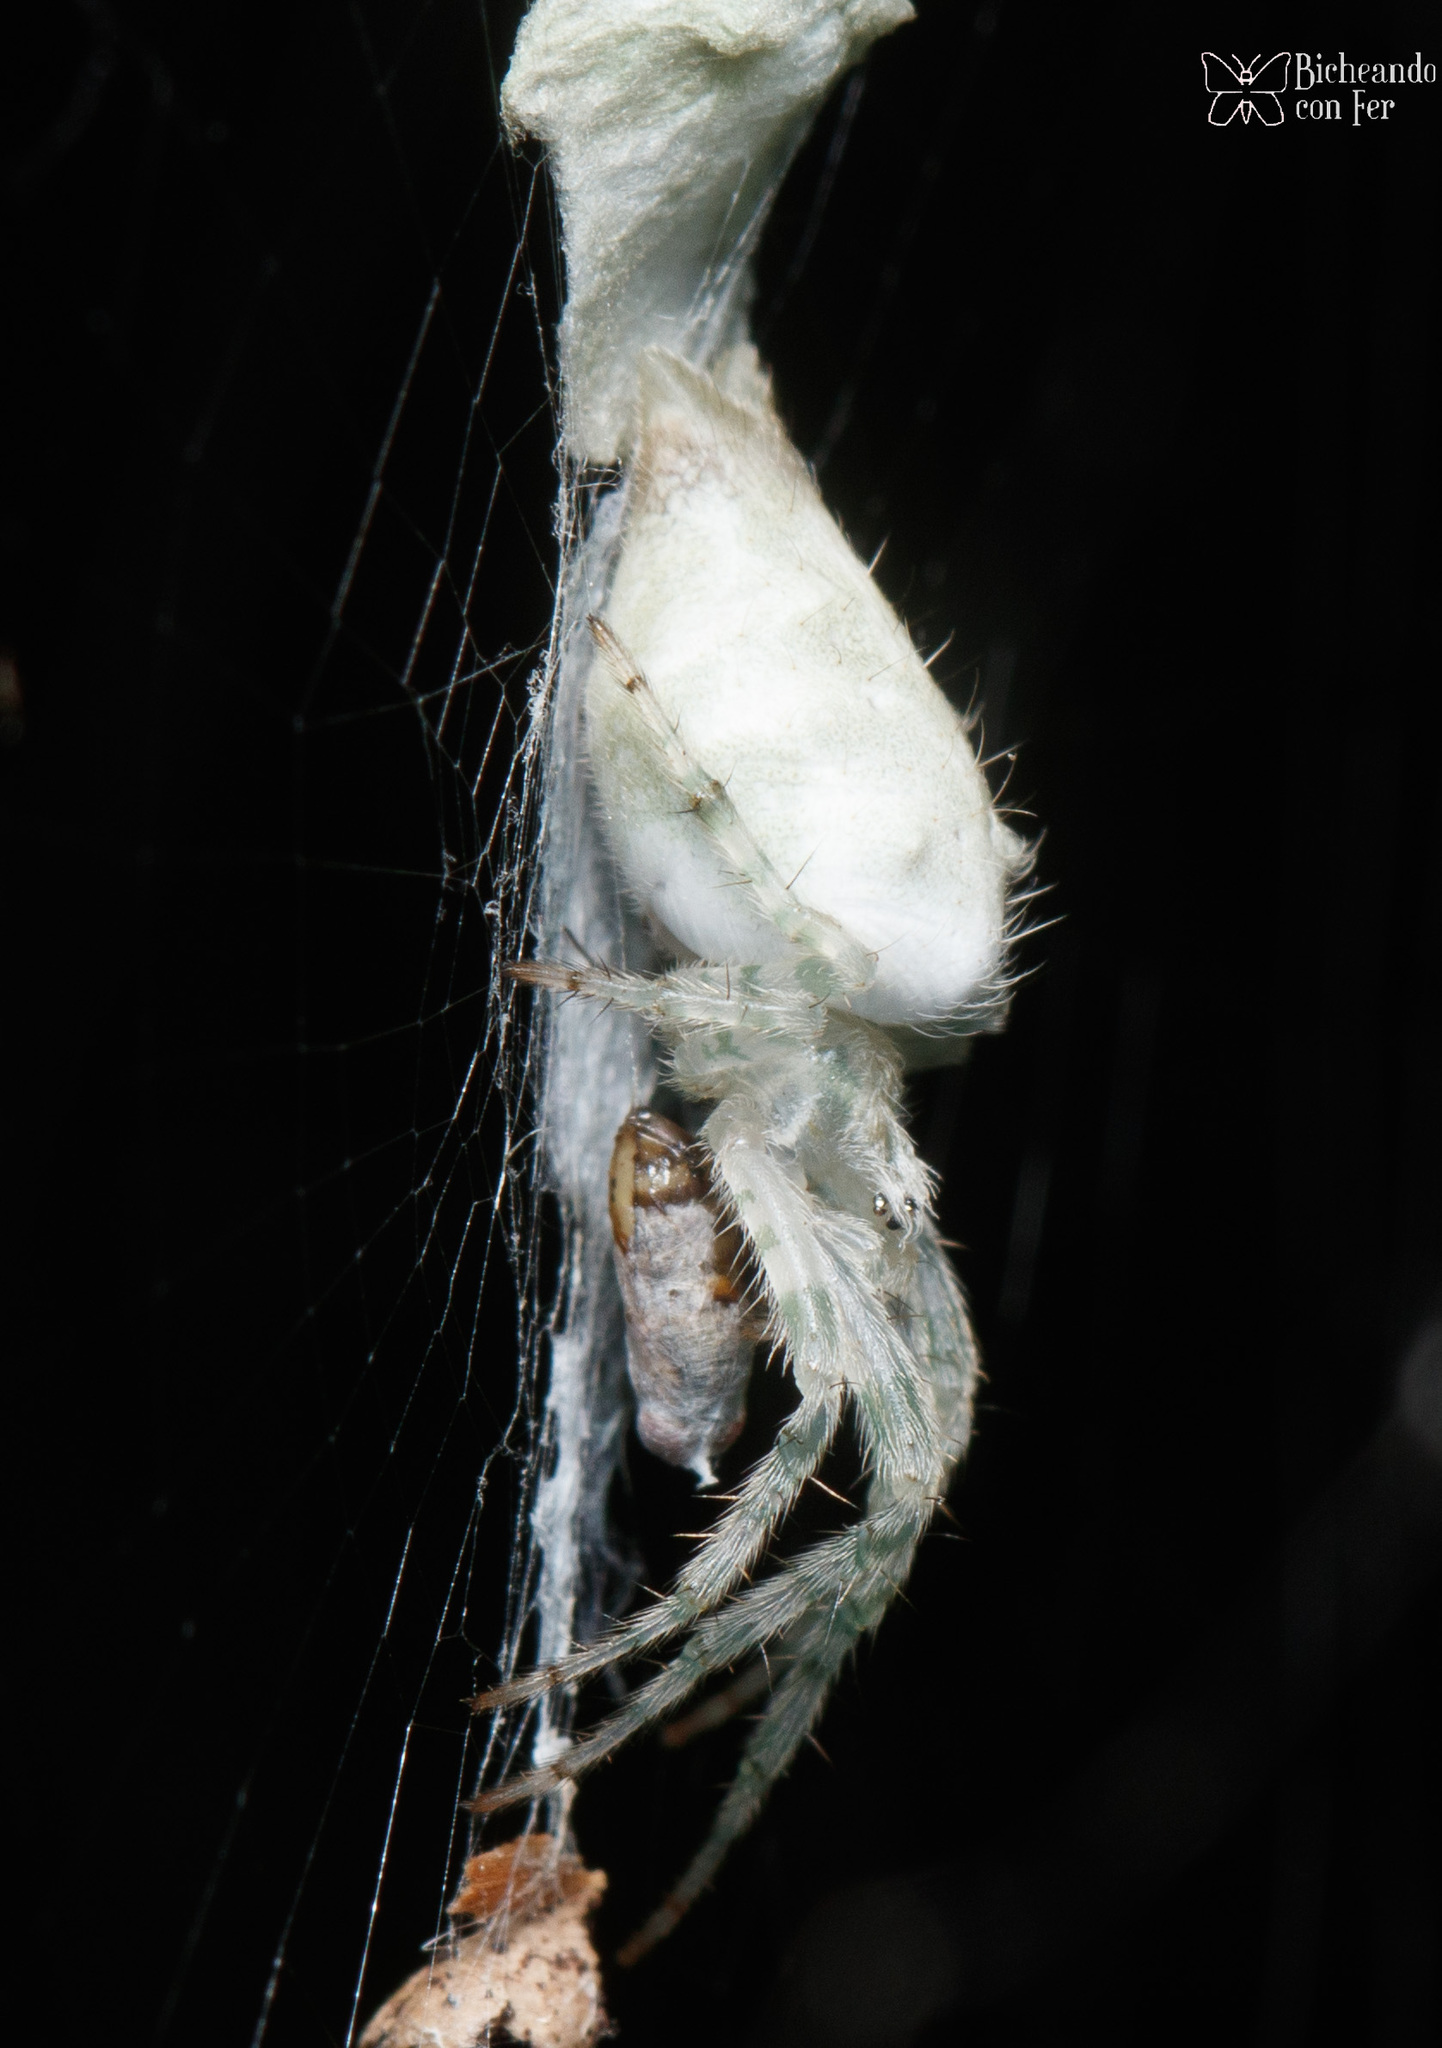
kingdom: Animalia
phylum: Arthropoda
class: Arachnida
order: Araneae
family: Araneidae
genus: Allocyclosa
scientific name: Allocyclosa bifurca
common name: Orb weavers
